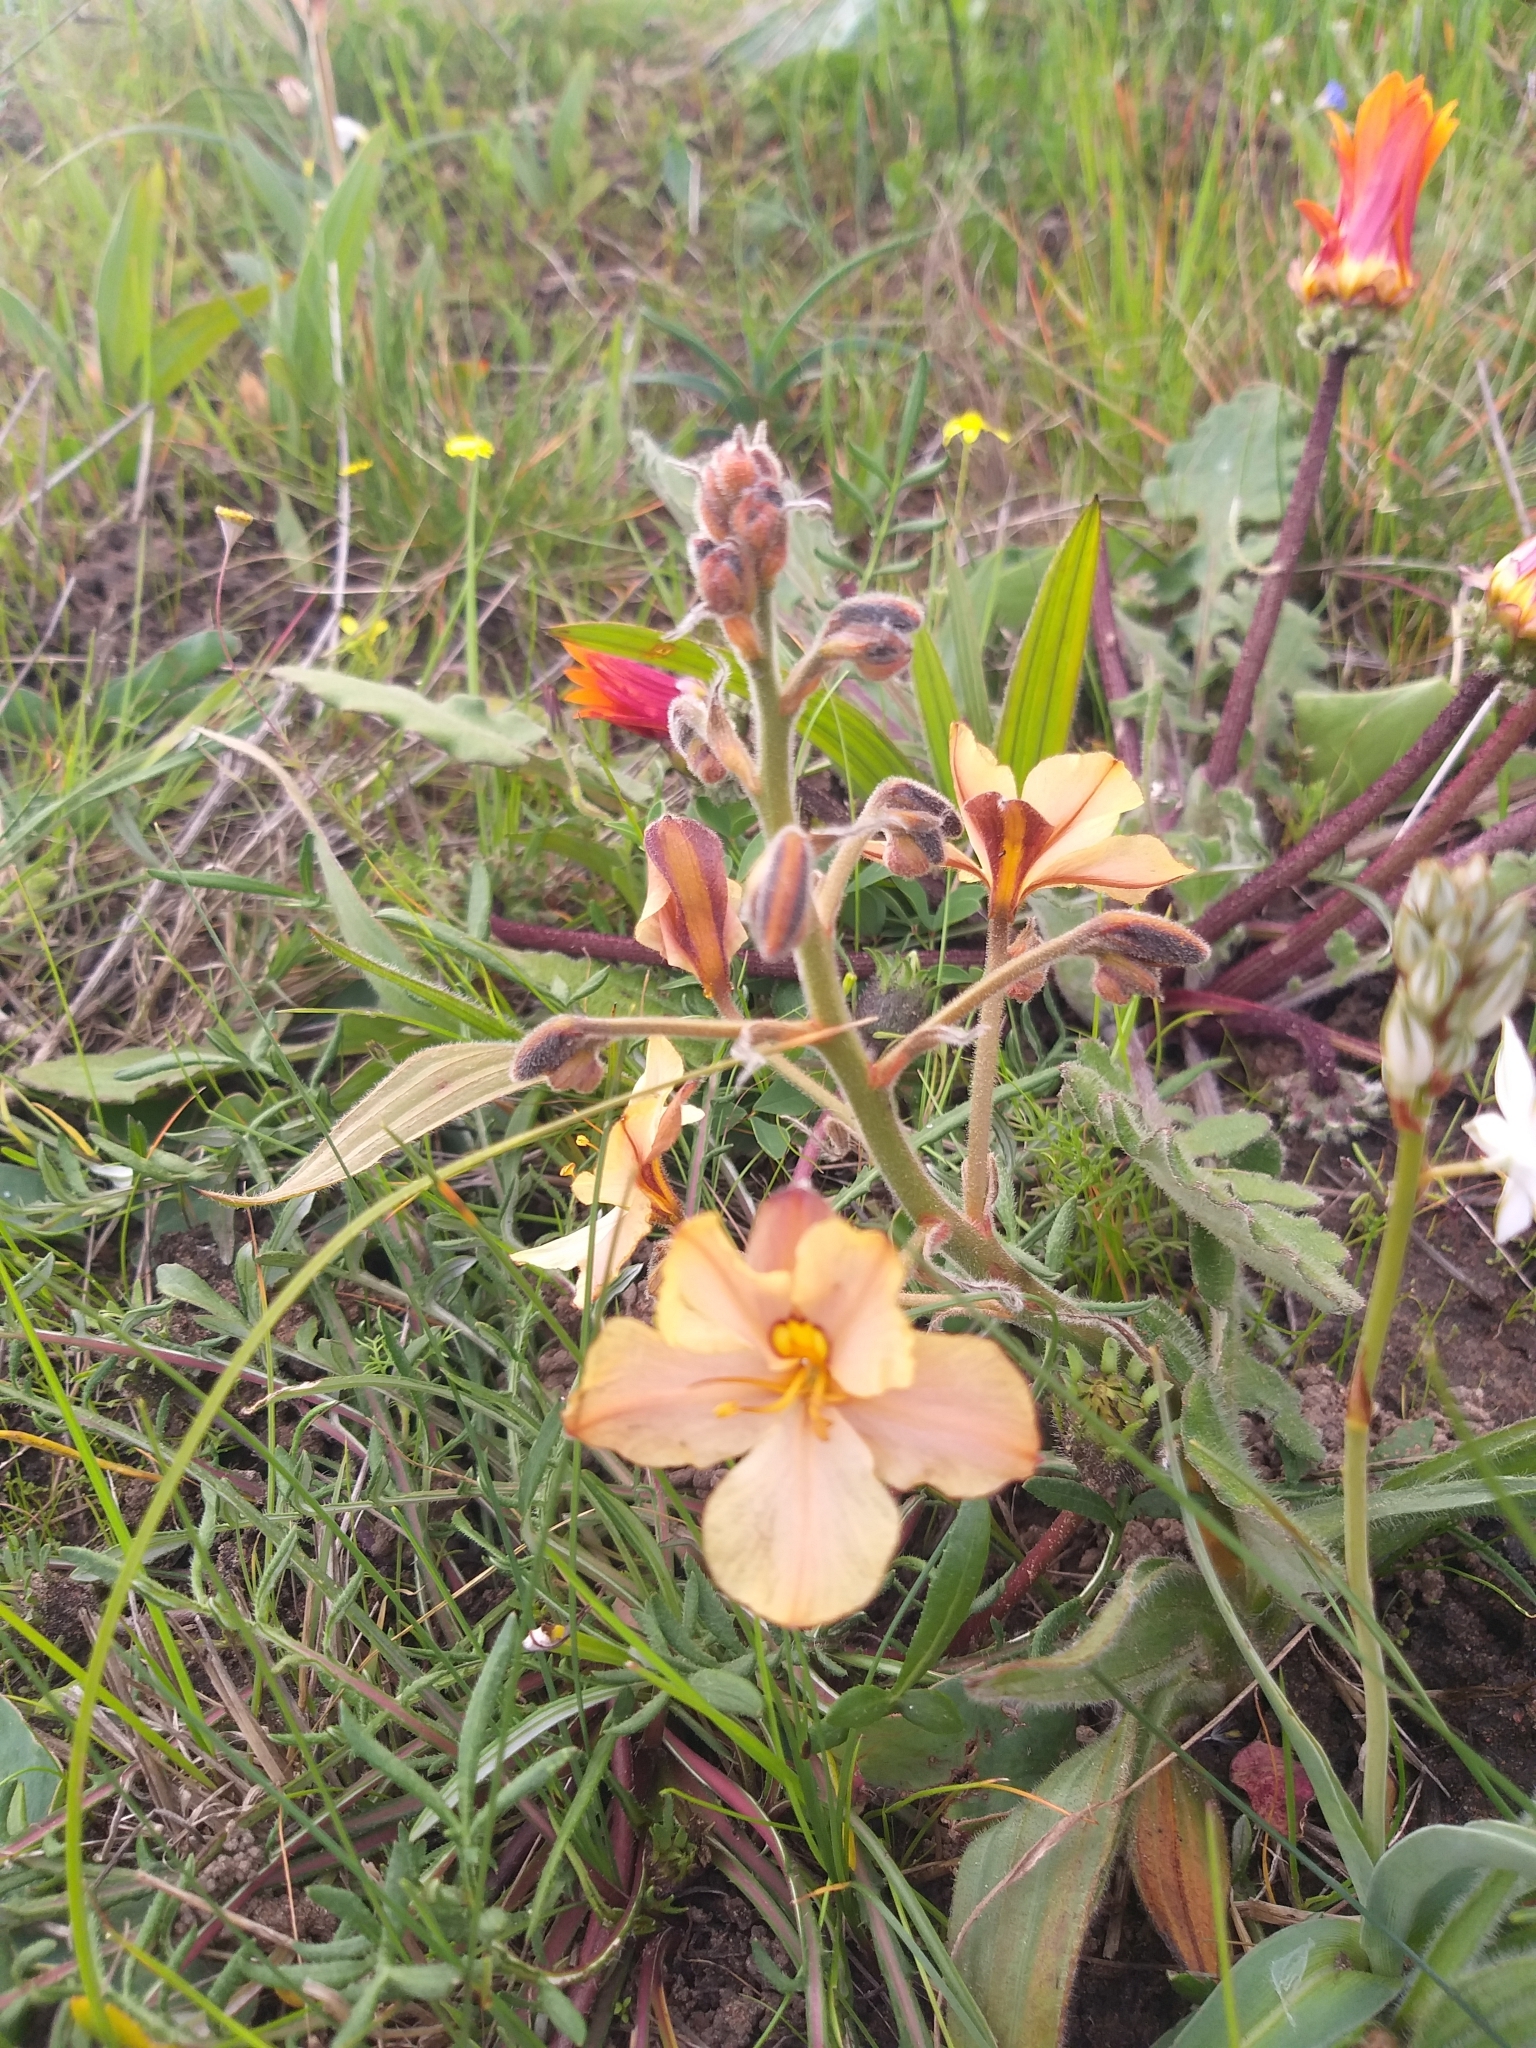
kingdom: Plantae
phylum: Tracheophyta
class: Liliopsida
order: Commelinales
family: Haemodoraceae
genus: Wachendorfia
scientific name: Wachendorfia paniculata
